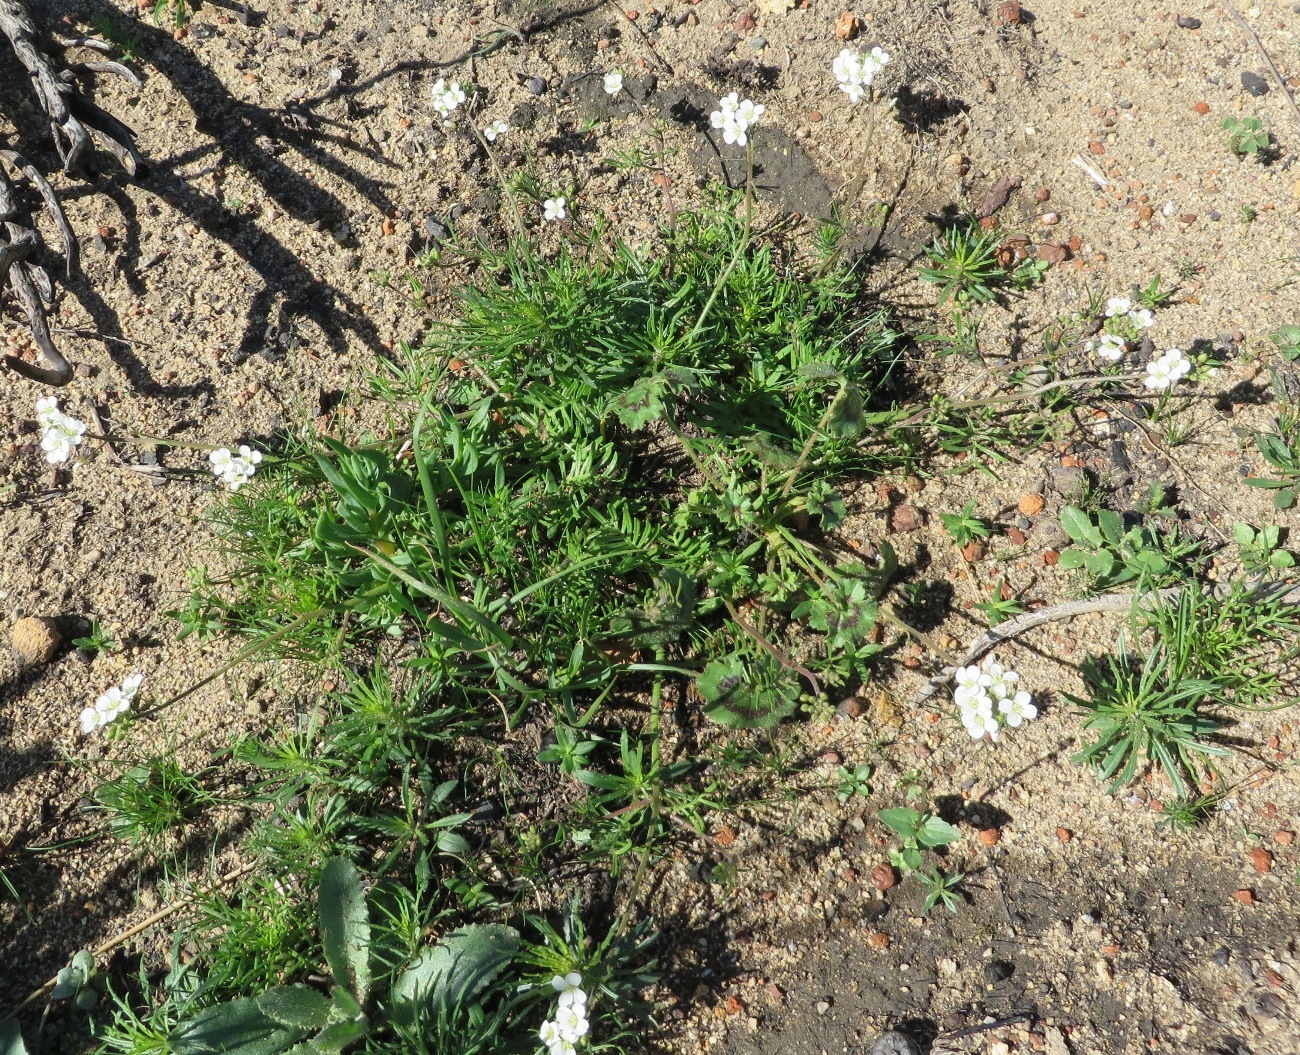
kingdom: Plantae
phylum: Tracheophyta
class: Magnoliopsida
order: Brassicales
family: Brassicaceae
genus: Heliophila
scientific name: Heliophila concatenata
